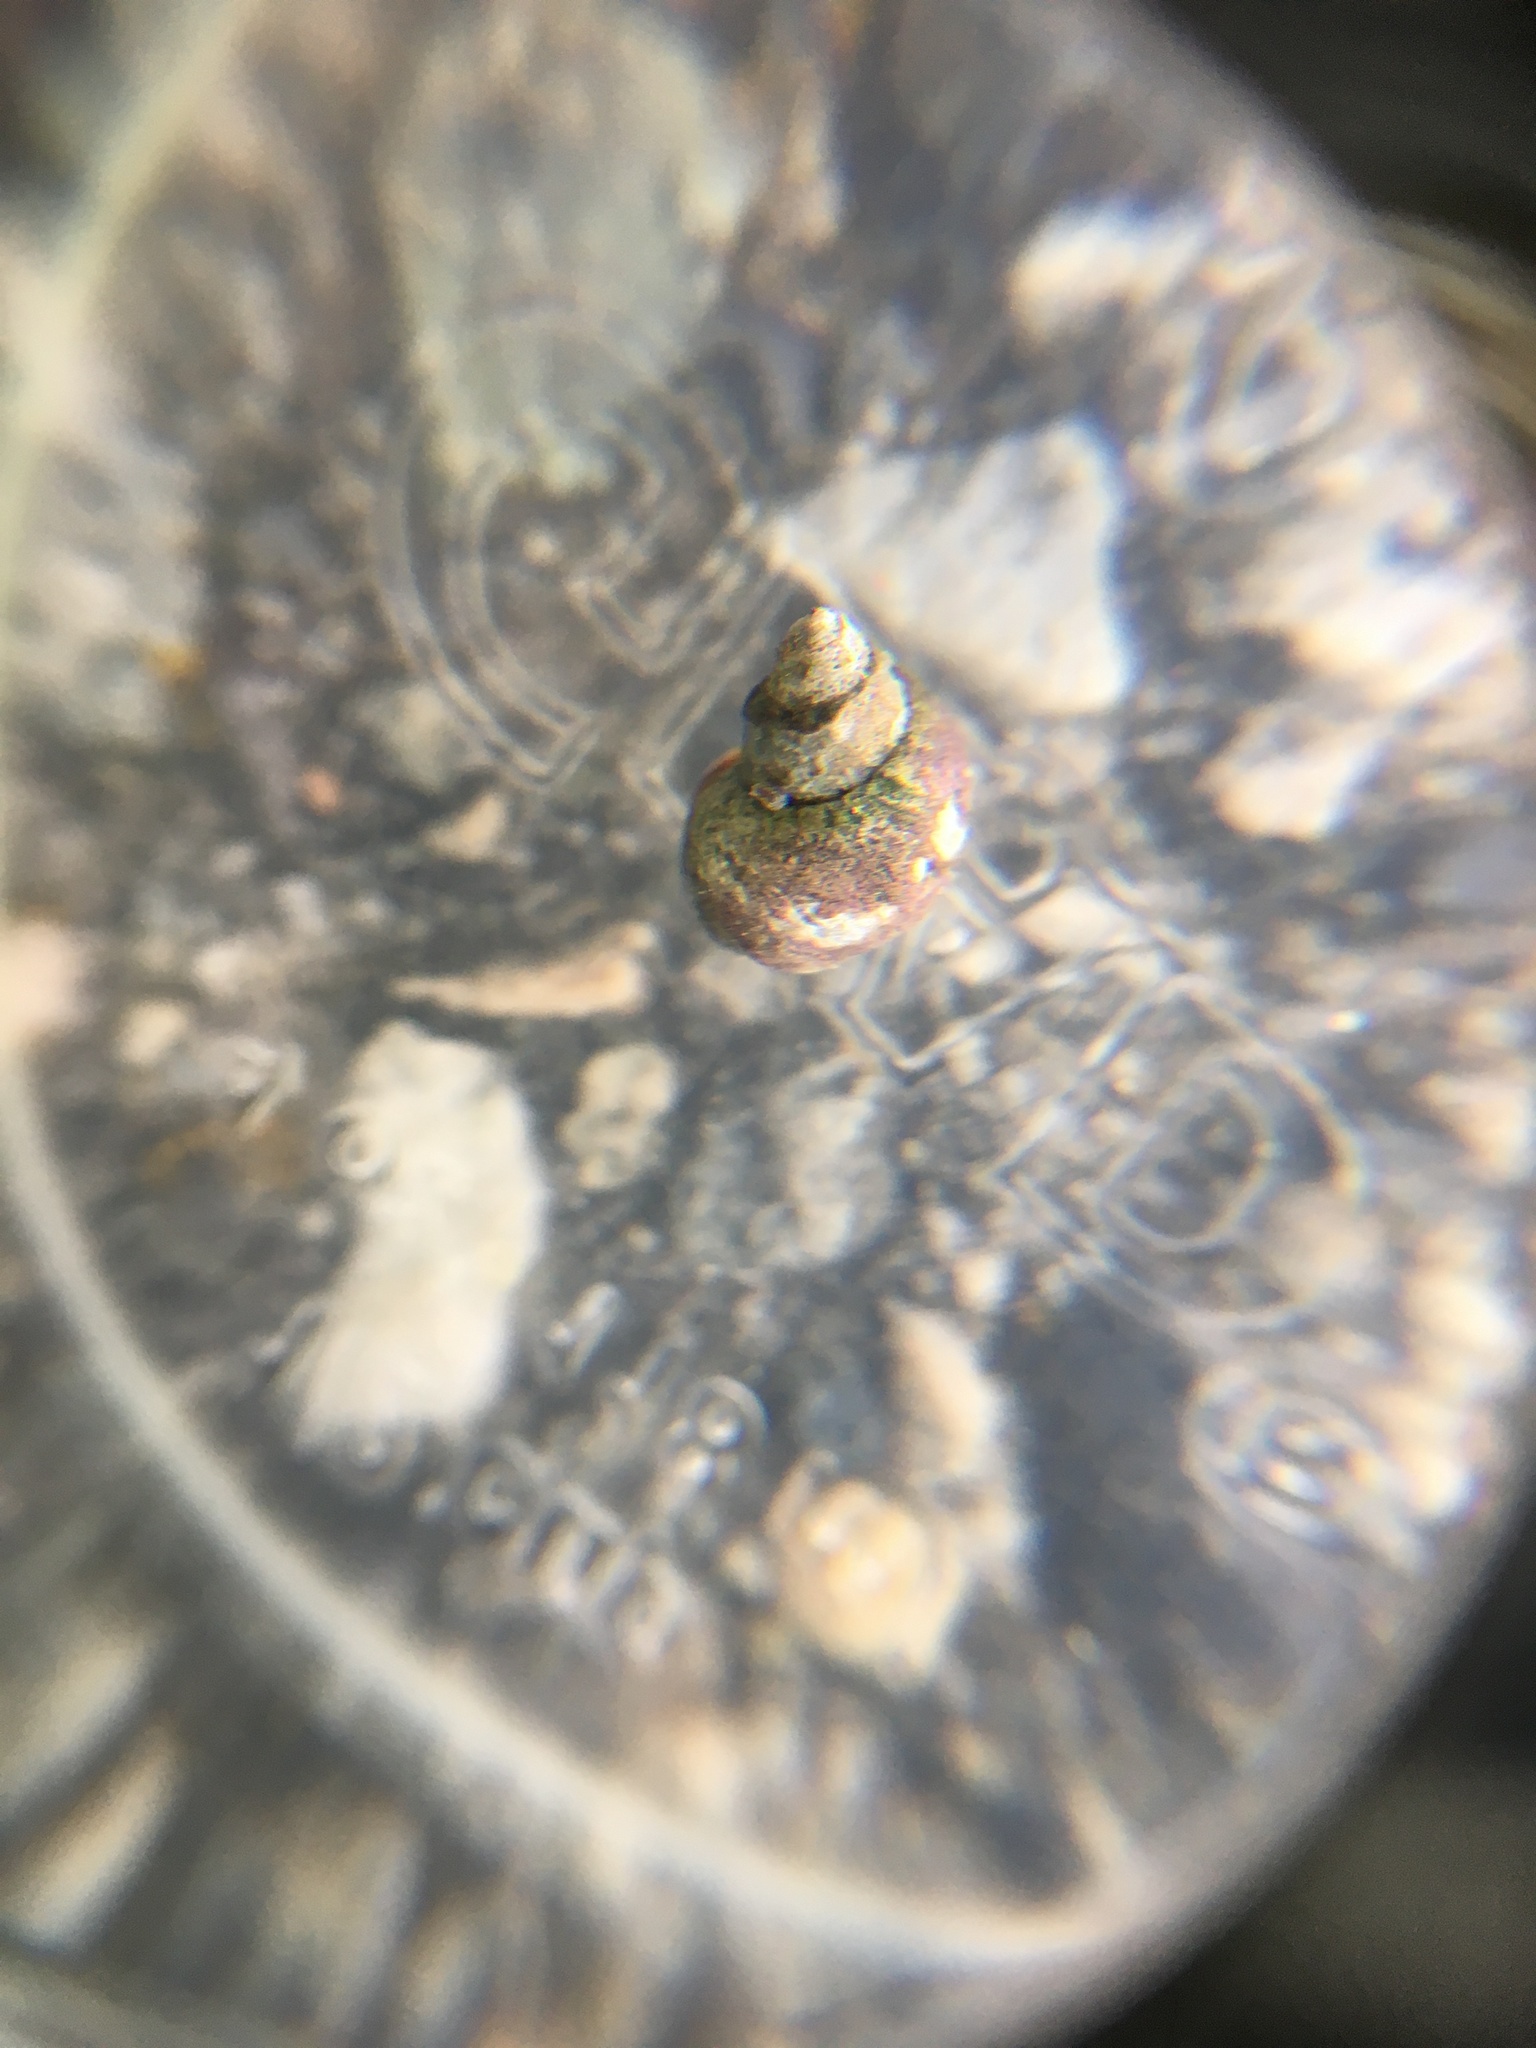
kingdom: Animalia
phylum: Mollusca
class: Gastropoda
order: Littorinimorpha
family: Littorinidae
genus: Littorina
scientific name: Littorina scutulata
